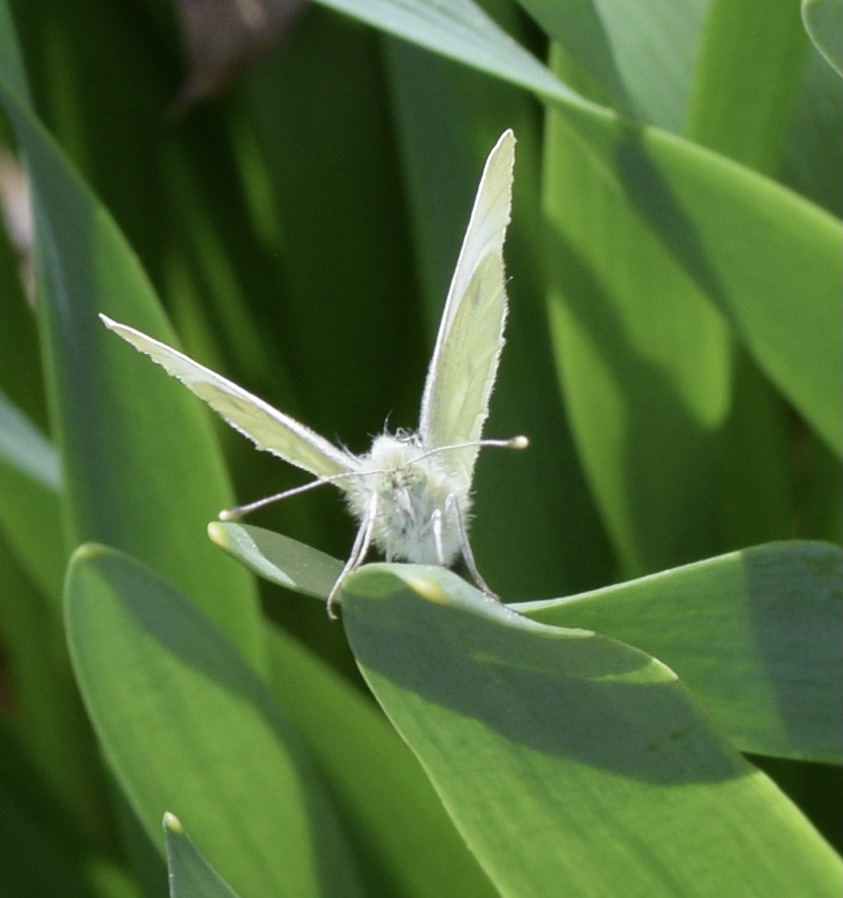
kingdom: Animalia
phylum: Arthropoda
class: Insecta
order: Lepidoptera
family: Pieridae
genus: Pieris
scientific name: Pieris rapae
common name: Small white
